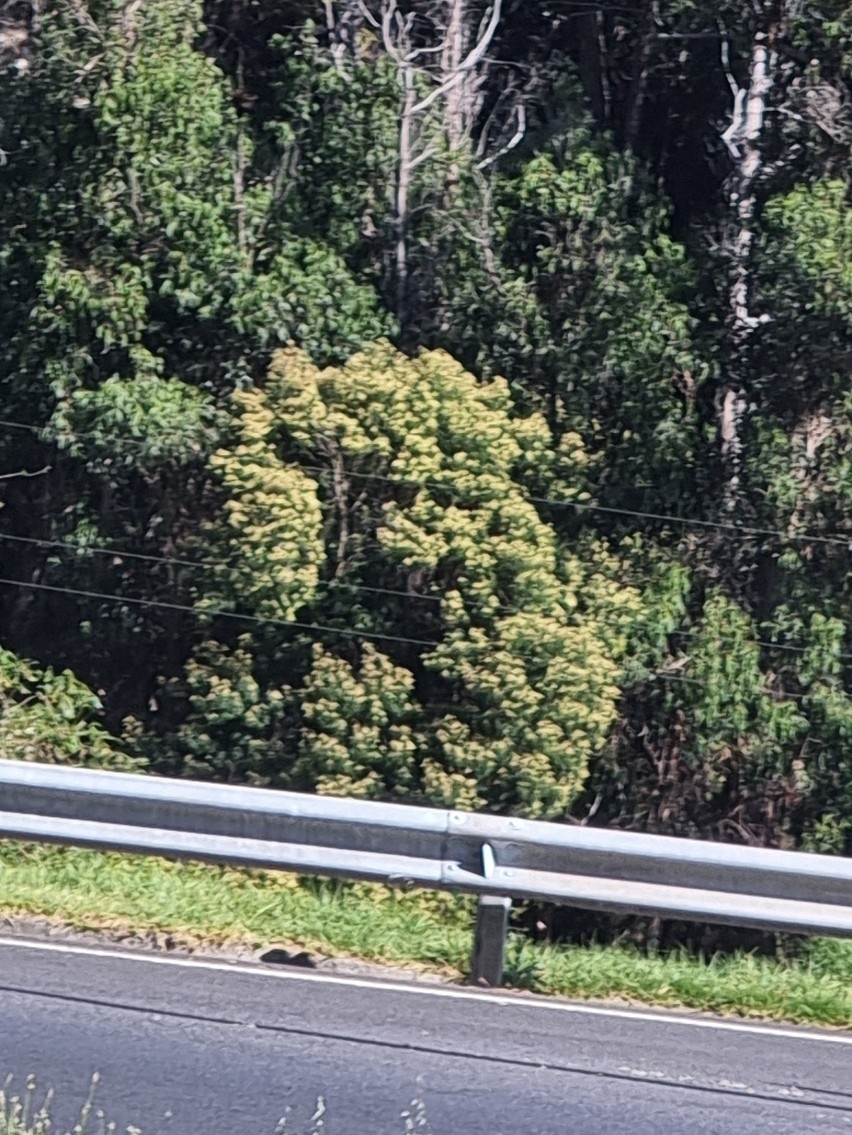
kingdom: Plantae
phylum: Tracheophyta
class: Magnoliopsida
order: Fabales
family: Fabaceae
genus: Acacia
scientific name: Acacia mearnsii
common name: Black wattle
